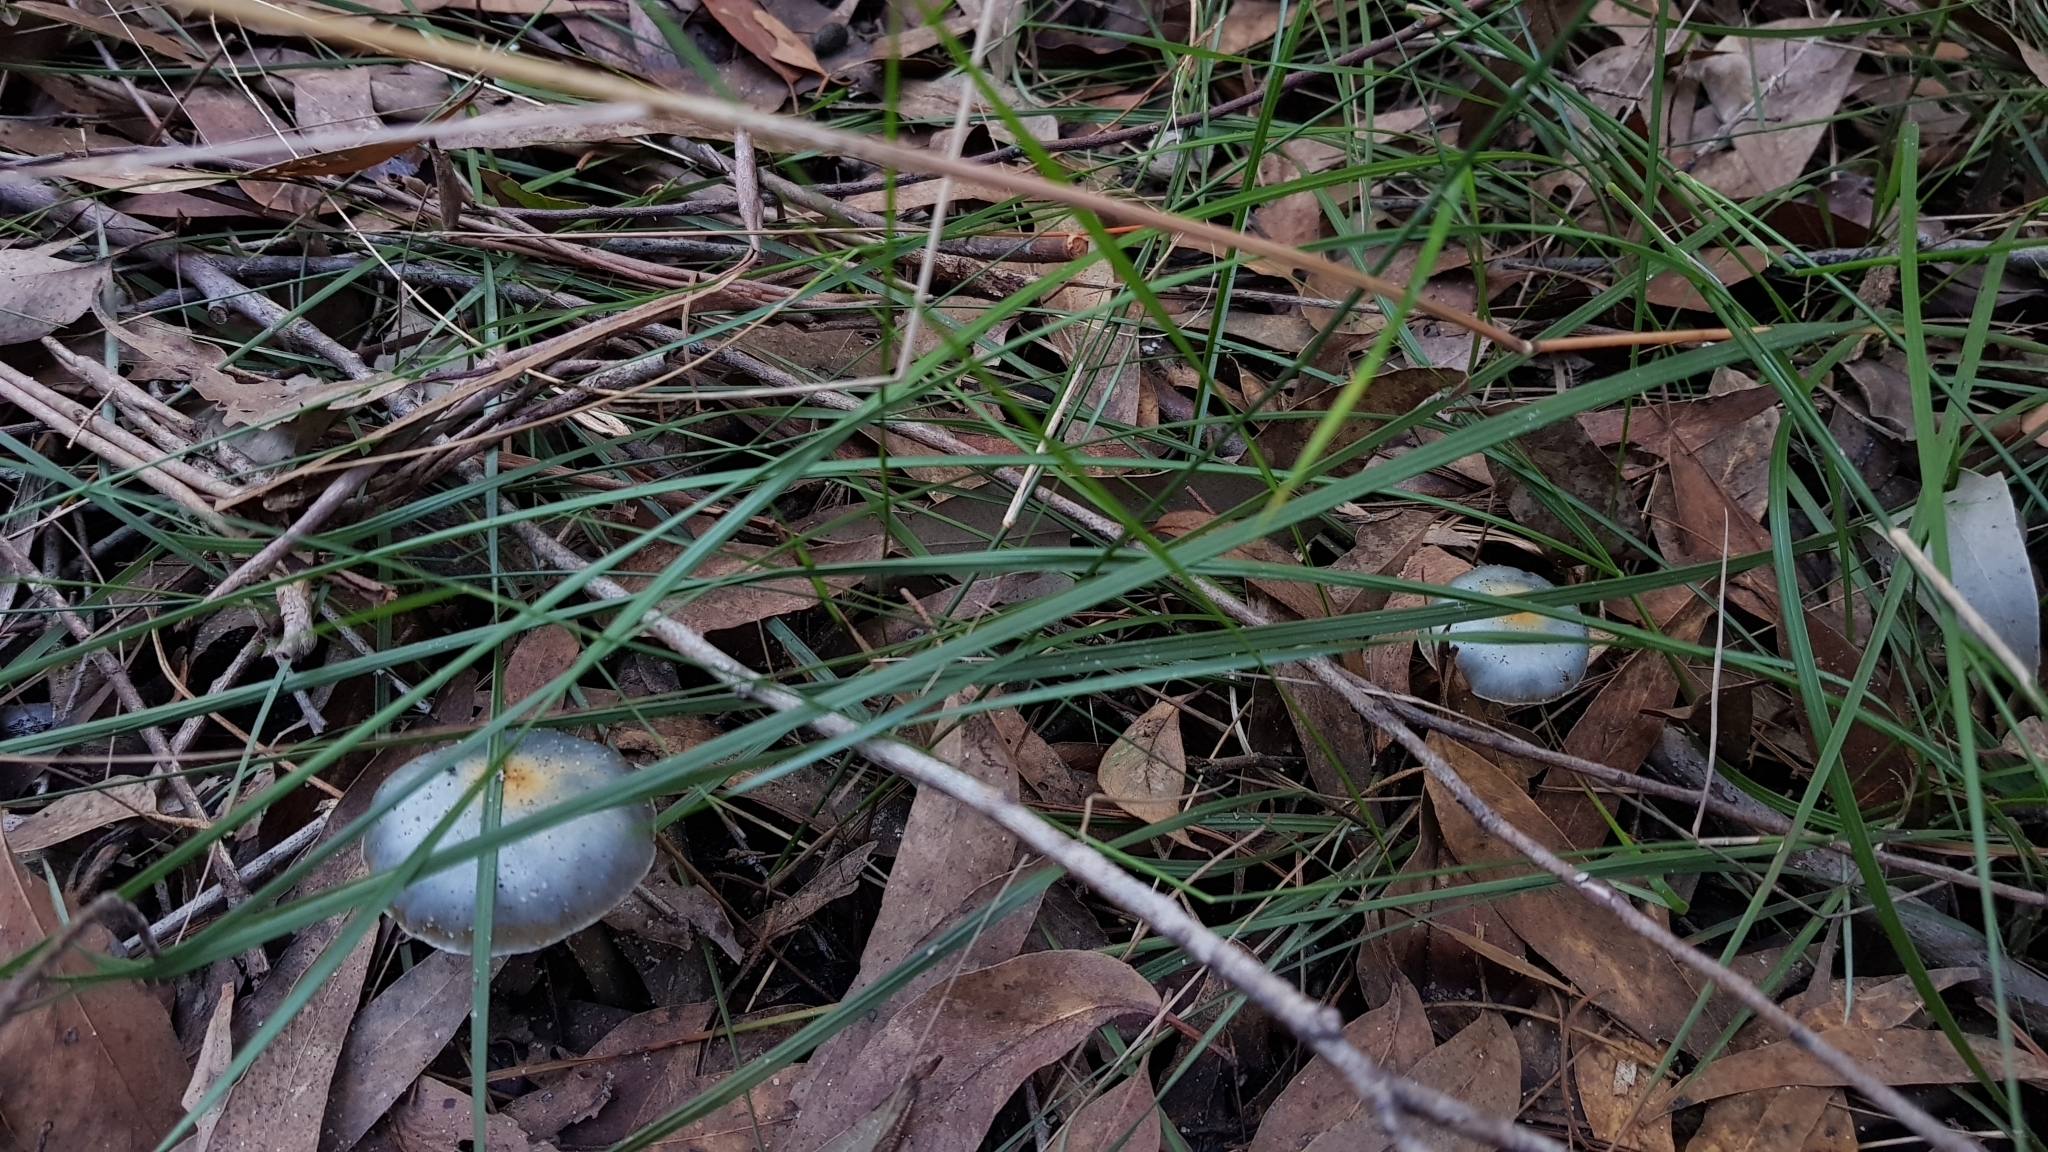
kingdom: Fungi
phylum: Basidiomycota
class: Agaricomycetes
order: Agaricales
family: Cortinariaceae
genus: Cortinarius
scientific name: Cortinarius rotundisporus
